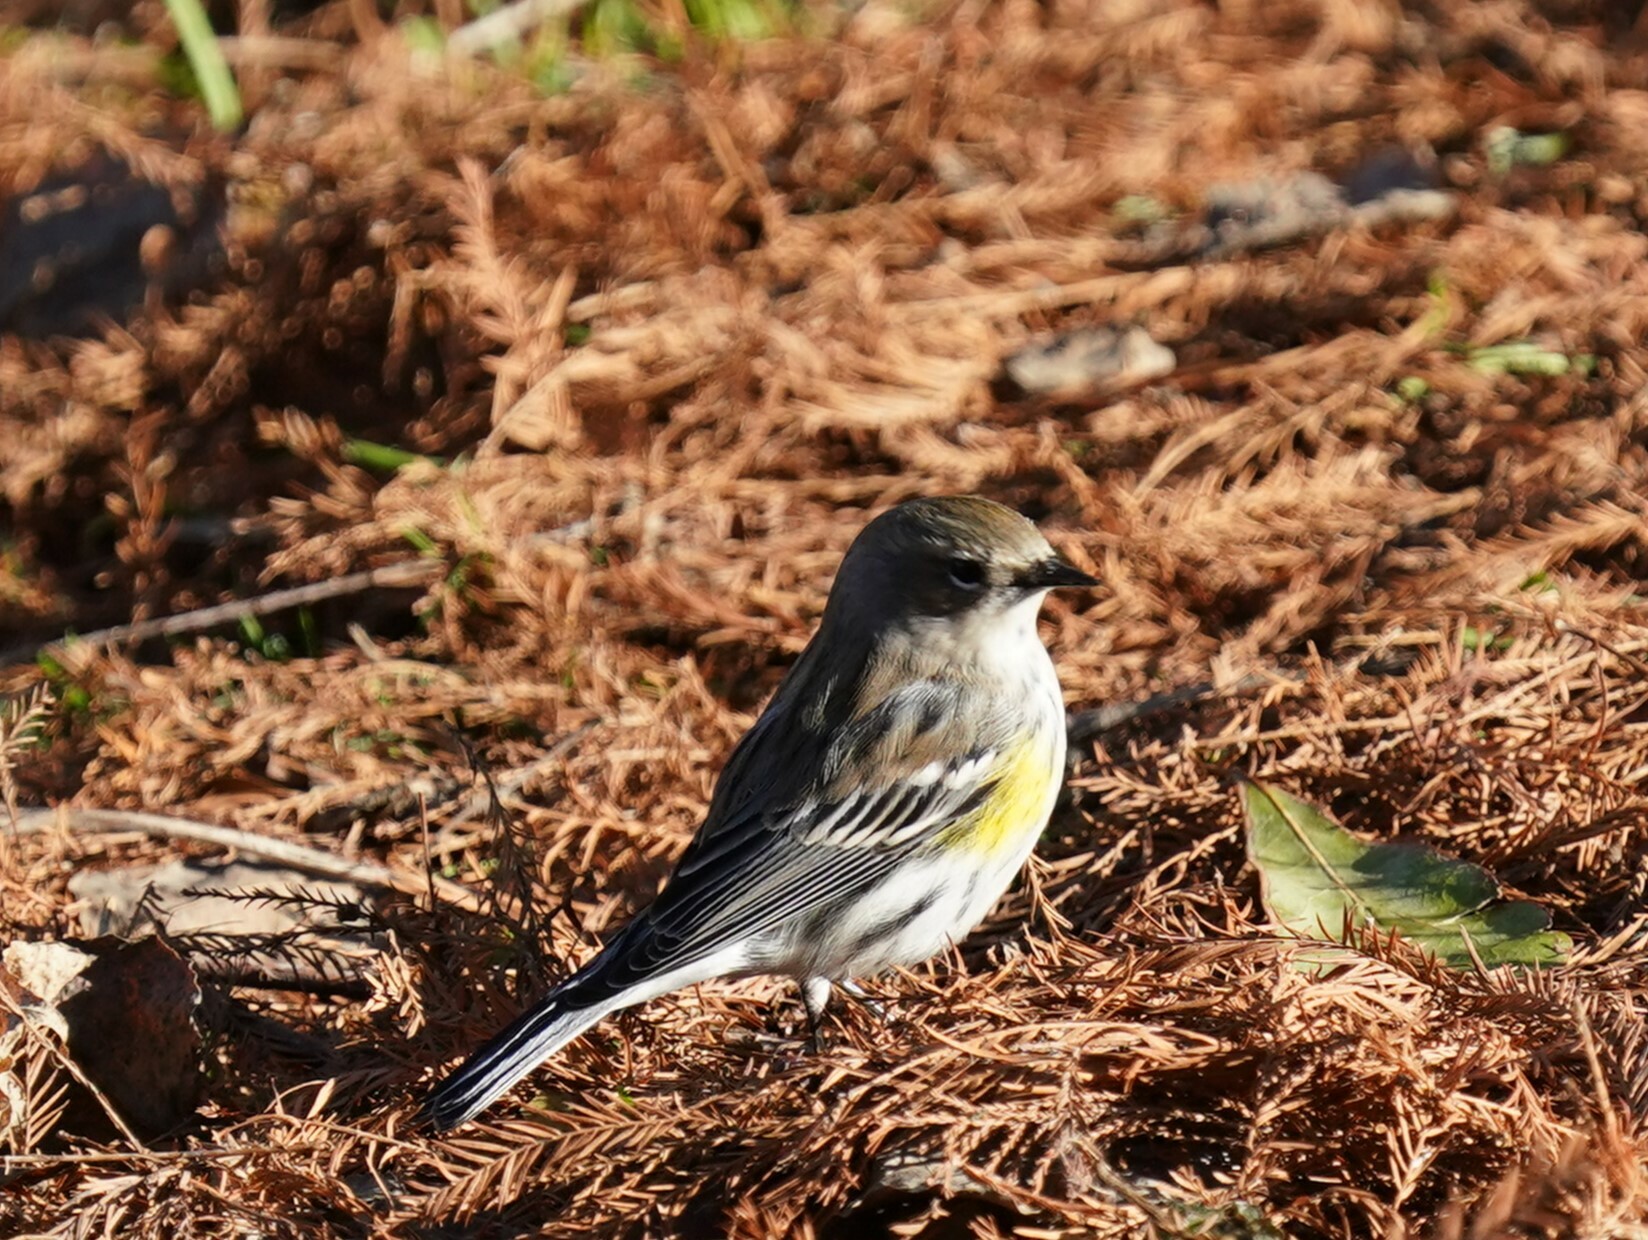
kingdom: Animalia
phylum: Chordata
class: Aves
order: Passeriformes
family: Parulidae
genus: Setophaga
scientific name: Setophaga coronata
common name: Myrtle warbler
